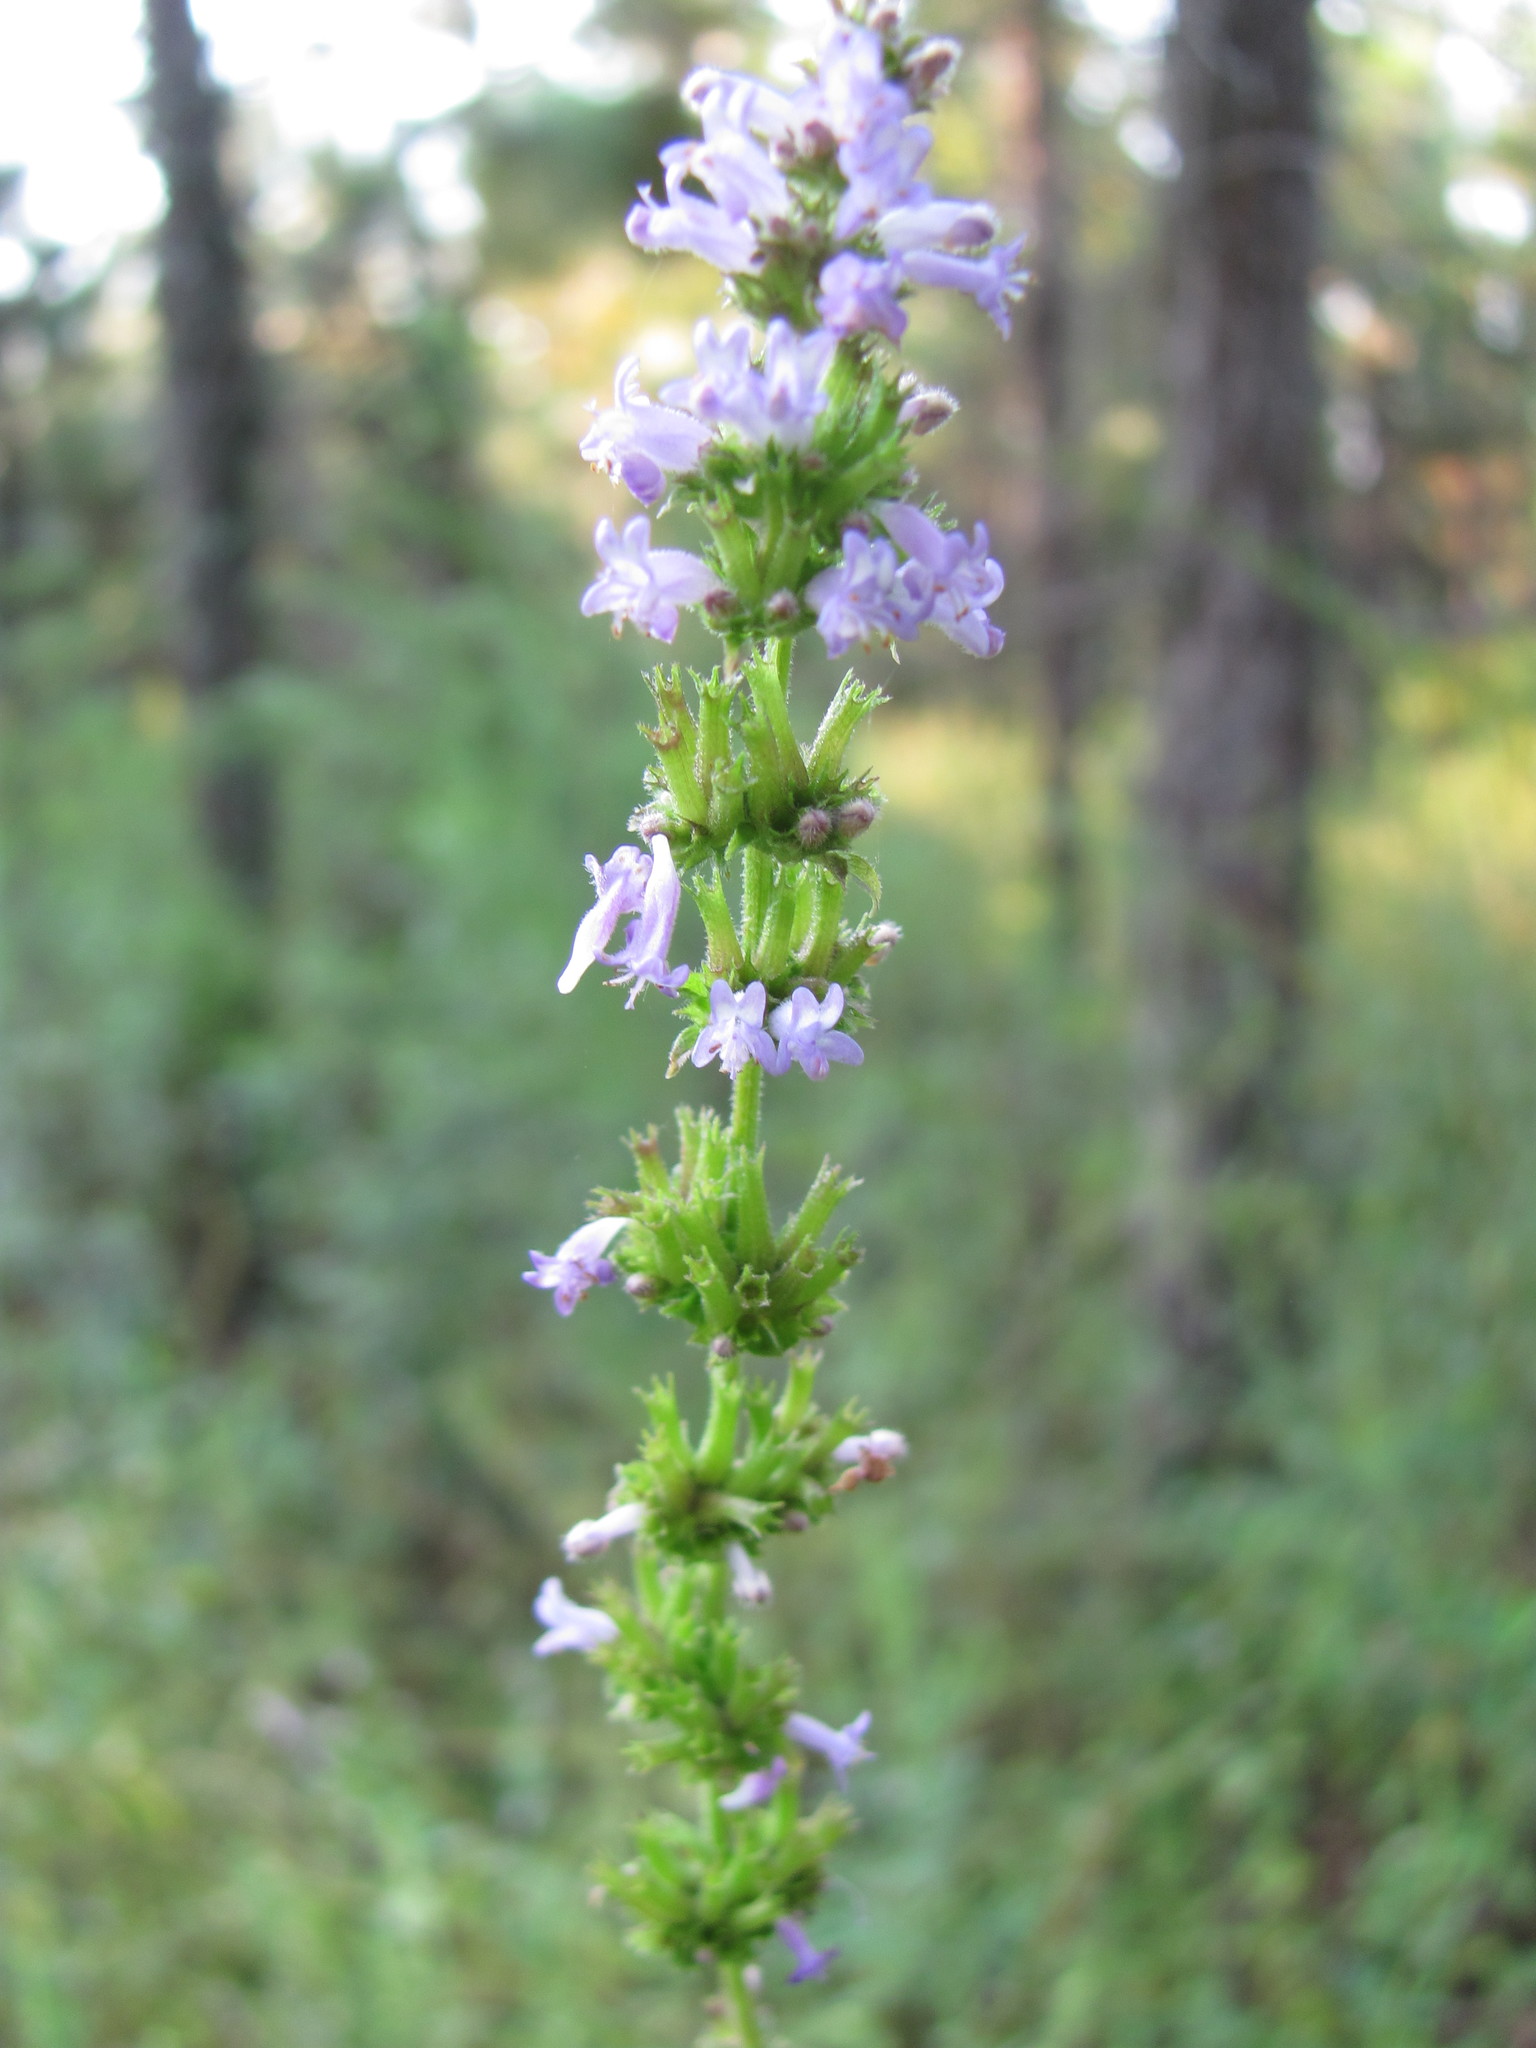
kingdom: Plantae
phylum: Tracheophyta
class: Magnoliopsida
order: Lamiales
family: Lamiaceae
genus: Cantinoa
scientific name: Cantinoa mutabilis
